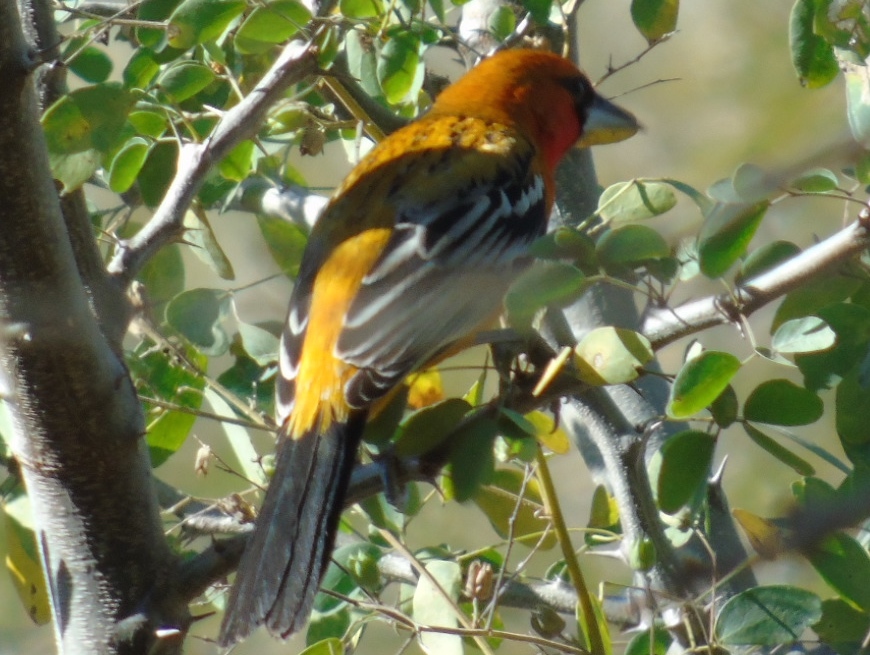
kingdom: Animalia
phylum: Chordata
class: Aves
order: Passeriformes
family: Icteridae
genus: Icterus
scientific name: Icterus pustulatus
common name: Streak-backed oriole
